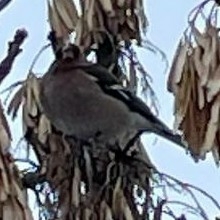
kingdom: Animalia
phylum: Chordata
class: Aves
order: Passeriformes
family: Fringillidae
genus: Fringilla
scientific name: Fringilla coelebs
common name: Common chaffinch
